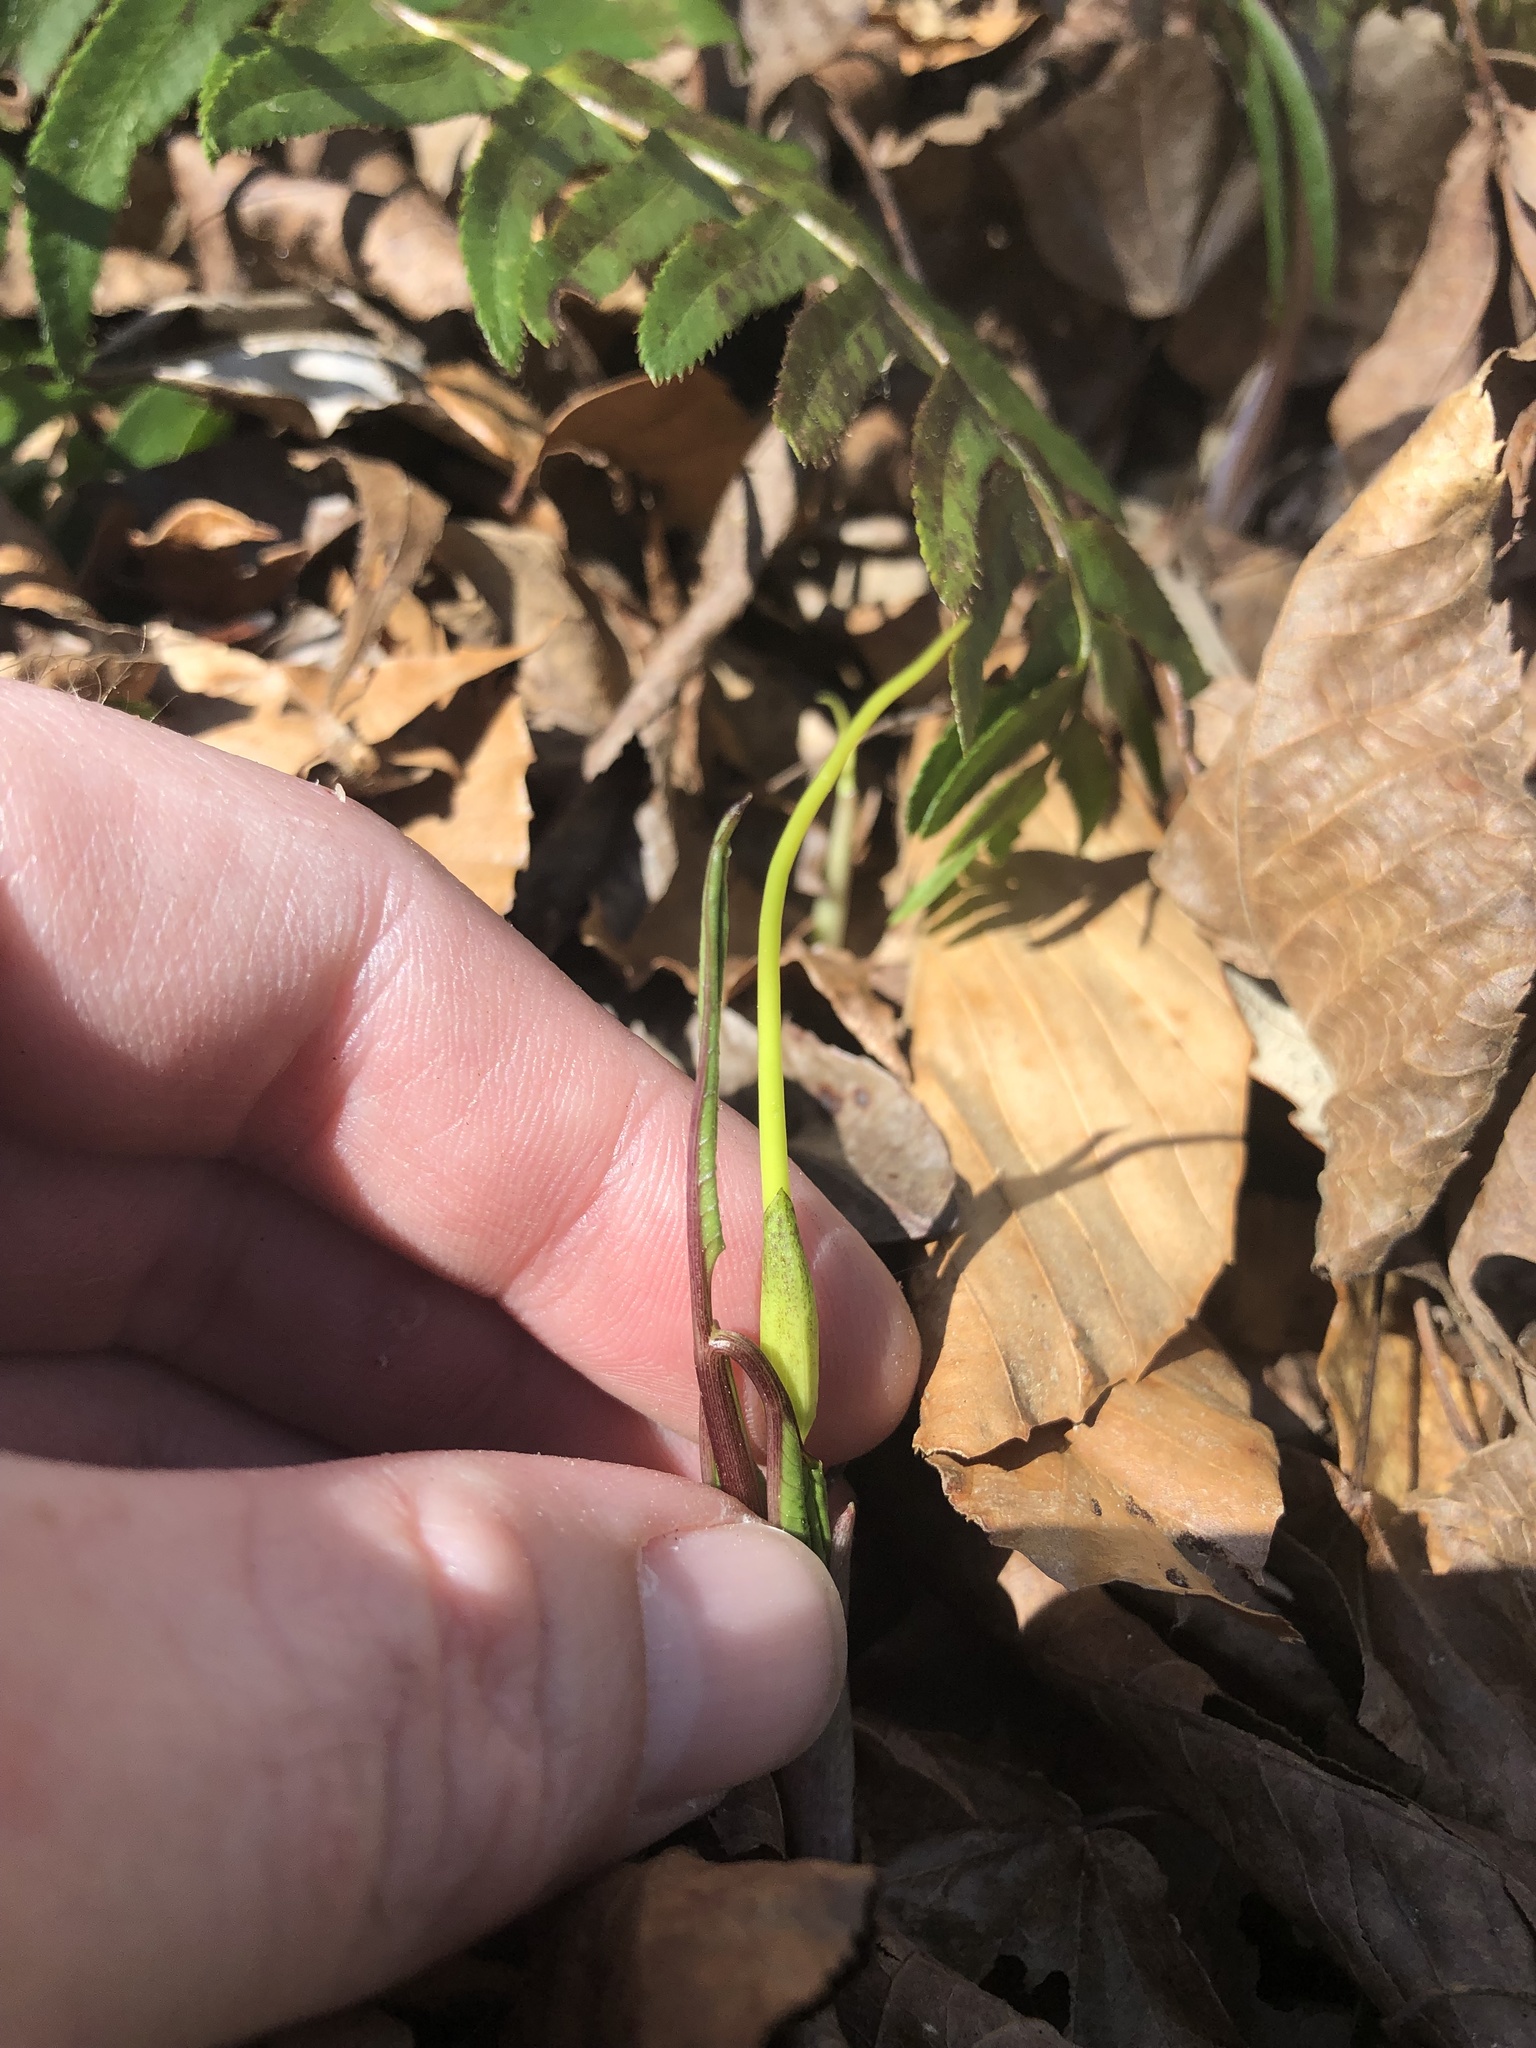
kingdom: Plantae
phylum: Tracheophyta
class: Liliopsida
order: Alismatales
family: Araceae
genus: Arisaema
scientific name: Arisaema dracontium
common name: Dragon-arum
